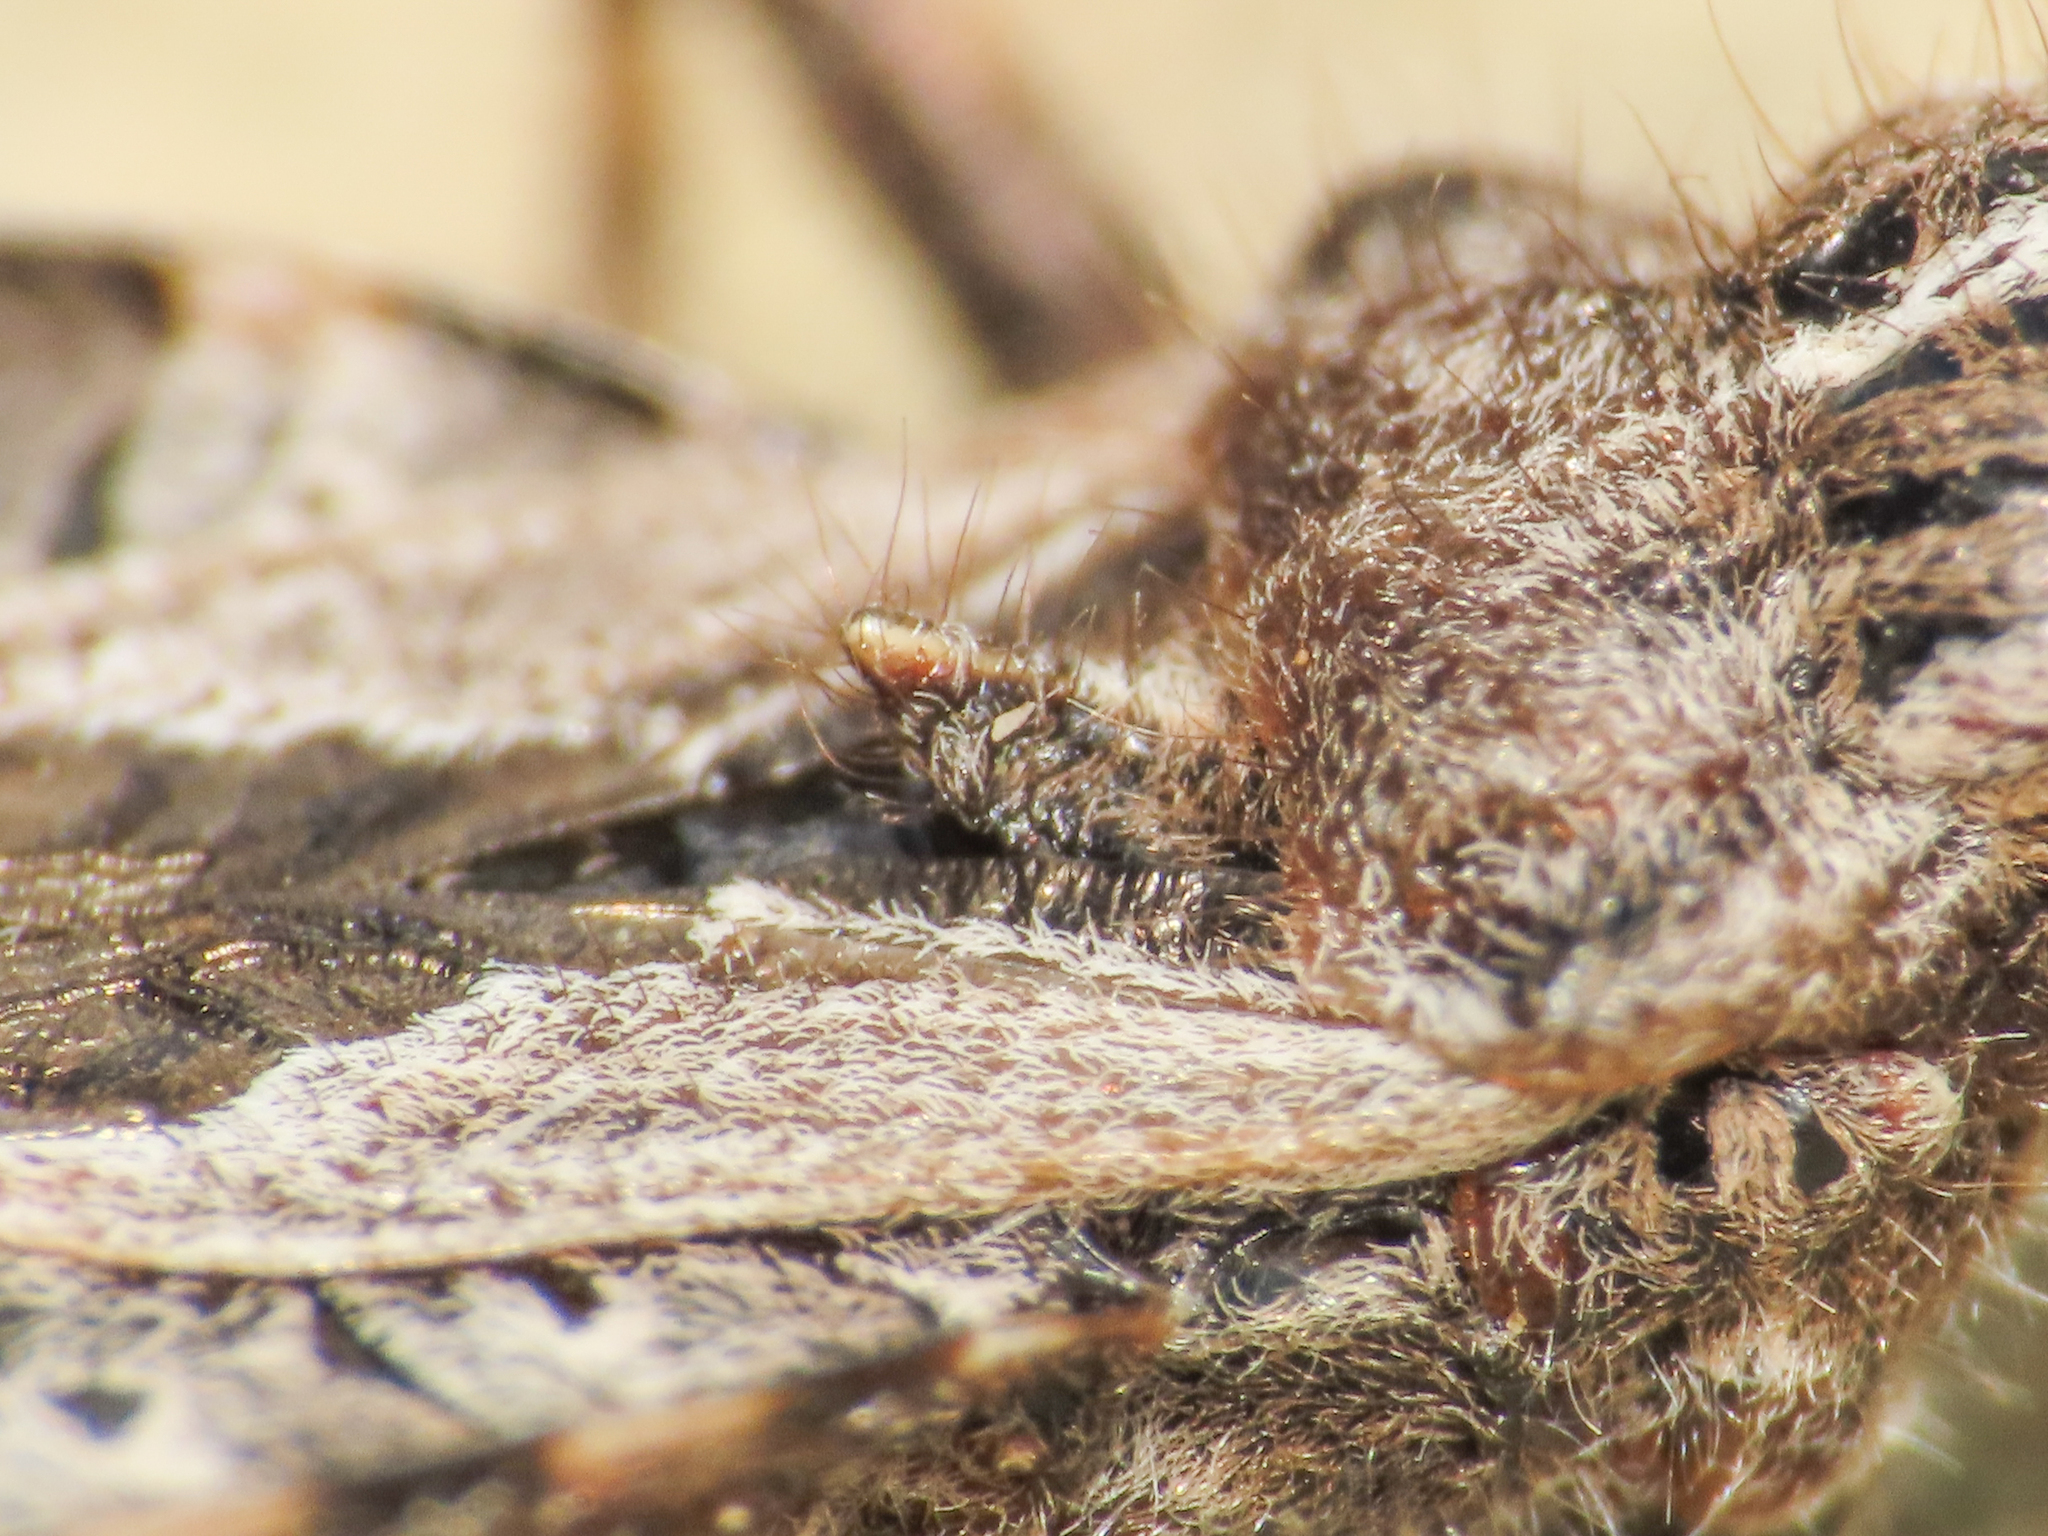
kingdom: Animalia
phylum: Arthropoda
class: Insecta
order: Hemiptera
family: Reduviidae
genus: Coranus
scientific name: Coranus subapterus
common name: Heath assassin bug
